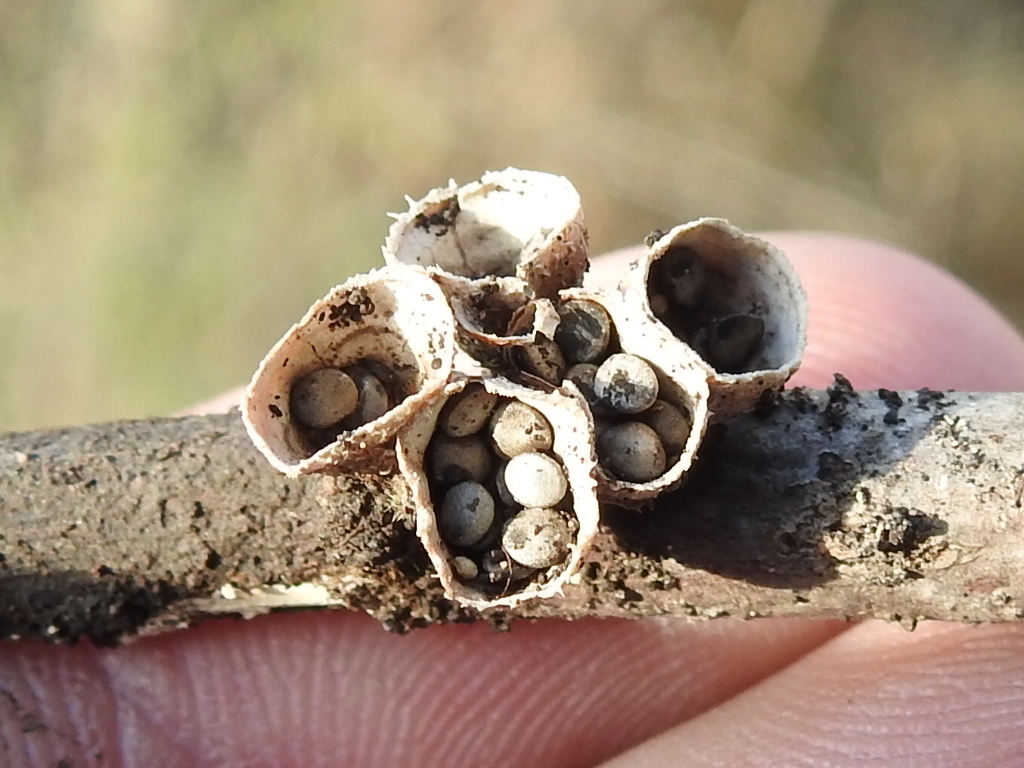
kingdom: Fungi
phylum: Basidiomycota
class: Agaricomycetes
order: Agaricales
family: Agaricaceae
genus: Cyathus
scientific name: Cyathus stercoreus
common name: Dung bird's nest
